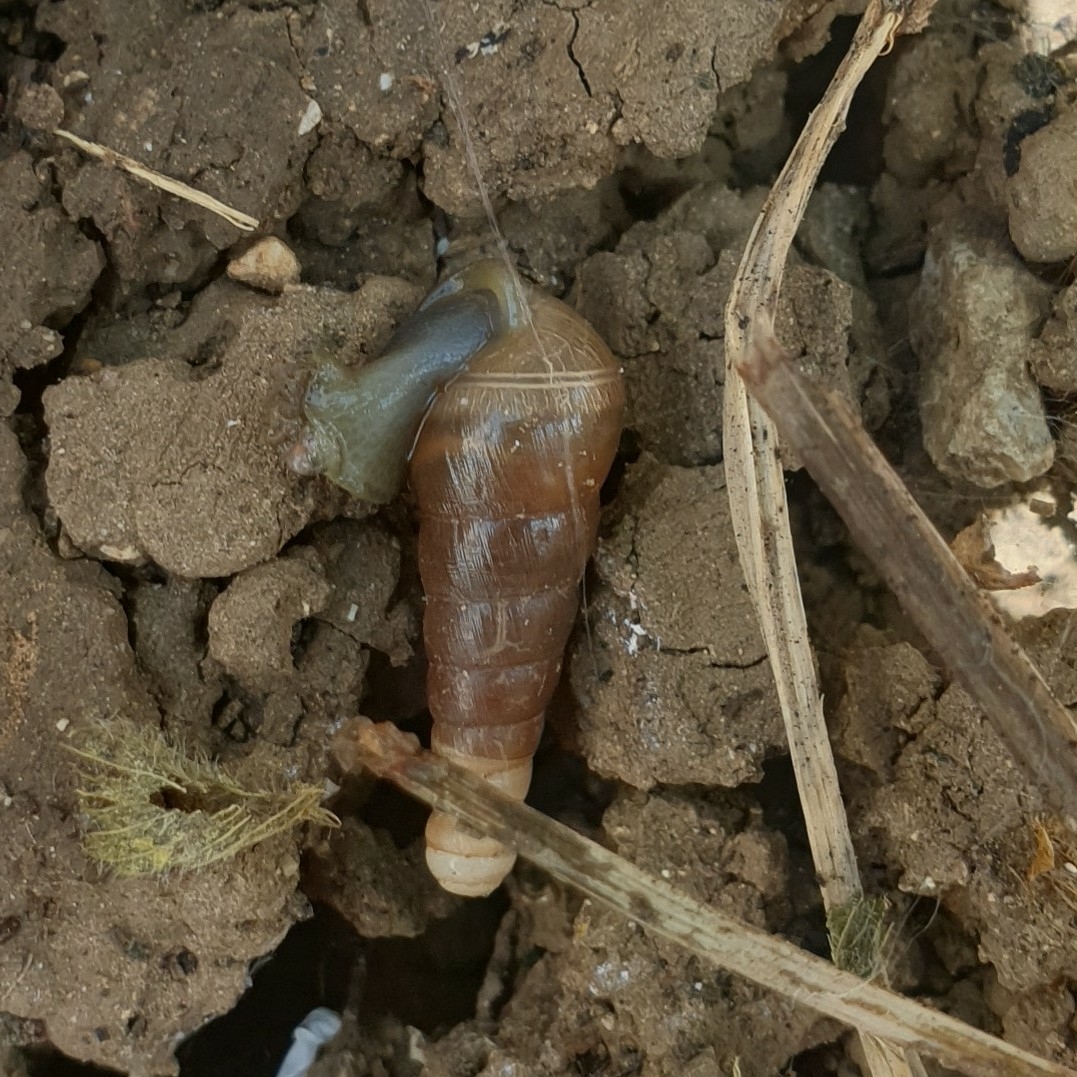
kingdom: Animalia
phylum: Mollusca
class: Gastropoda
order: Stylommatophora
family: Achatinidae
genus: Rumina
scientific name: Rumina decollata
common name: Decollate snail
